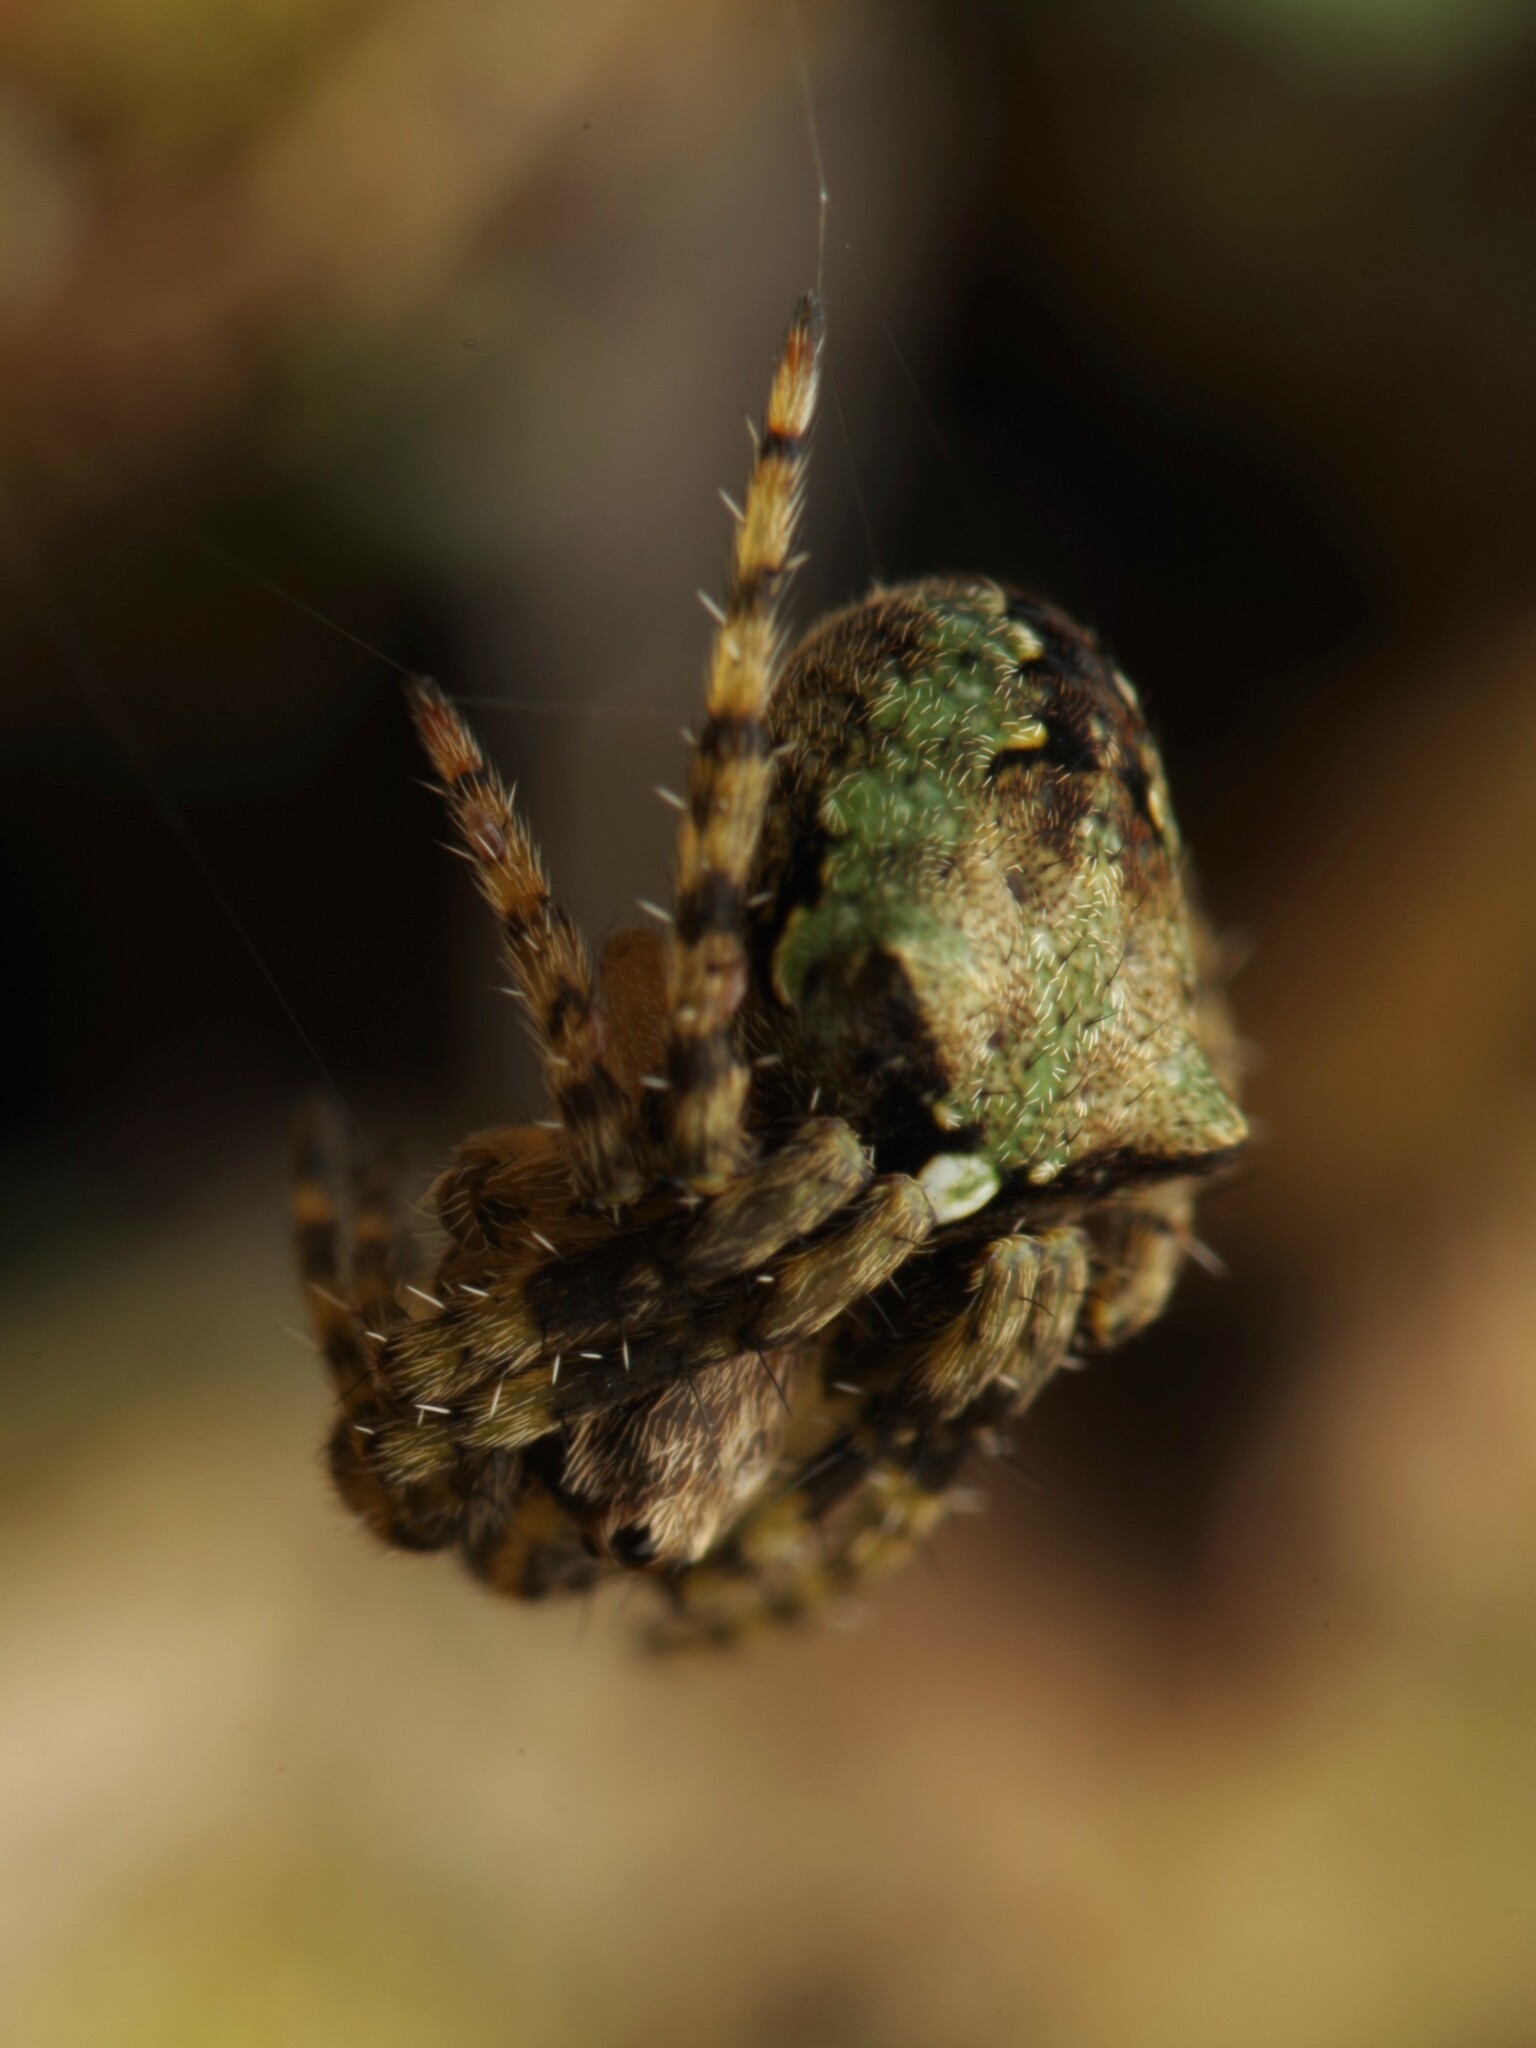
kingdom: Animalia
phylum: Arthropoda
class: Arachnida
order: Araneae
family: Araneidae
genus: Gibbaranea
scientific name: Gibbaranea gibbosa
